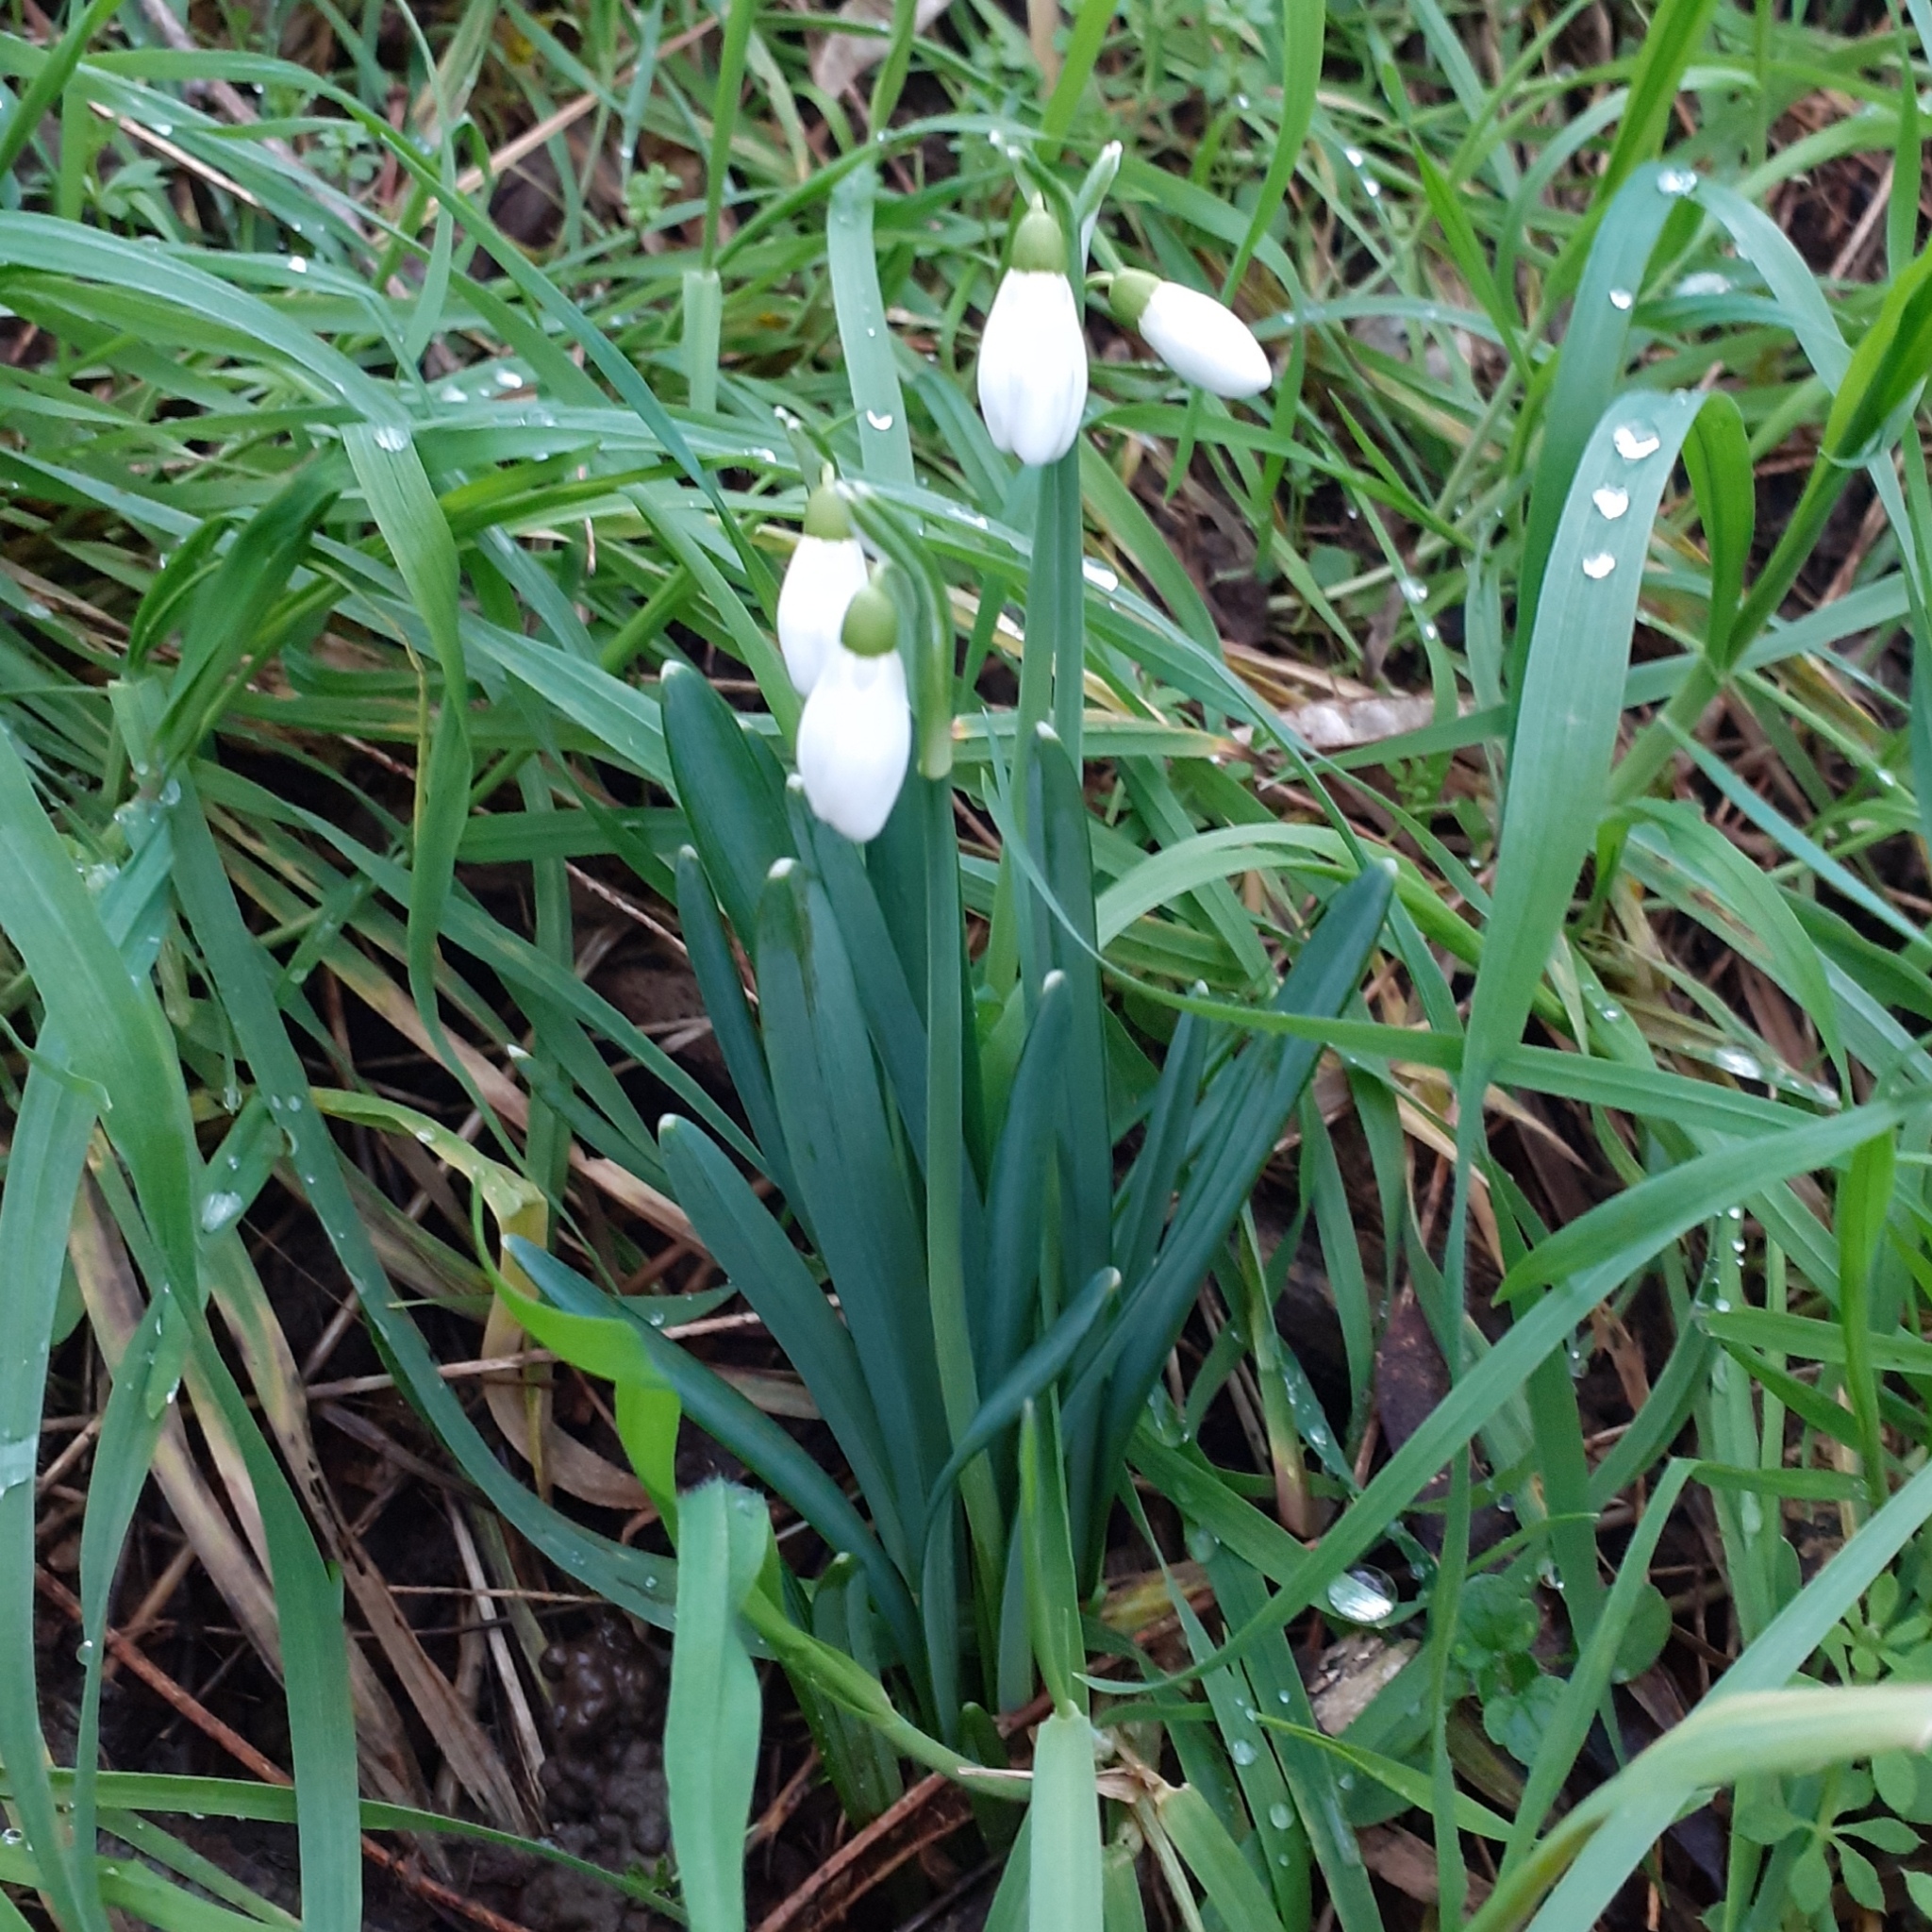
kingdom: Plantae
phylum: Tracheophyta
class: Liliopsida
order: Asparagales
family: Amaryllidaceae
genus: Galanthus
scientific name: Galanthus nivalis
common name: Snowdrop
